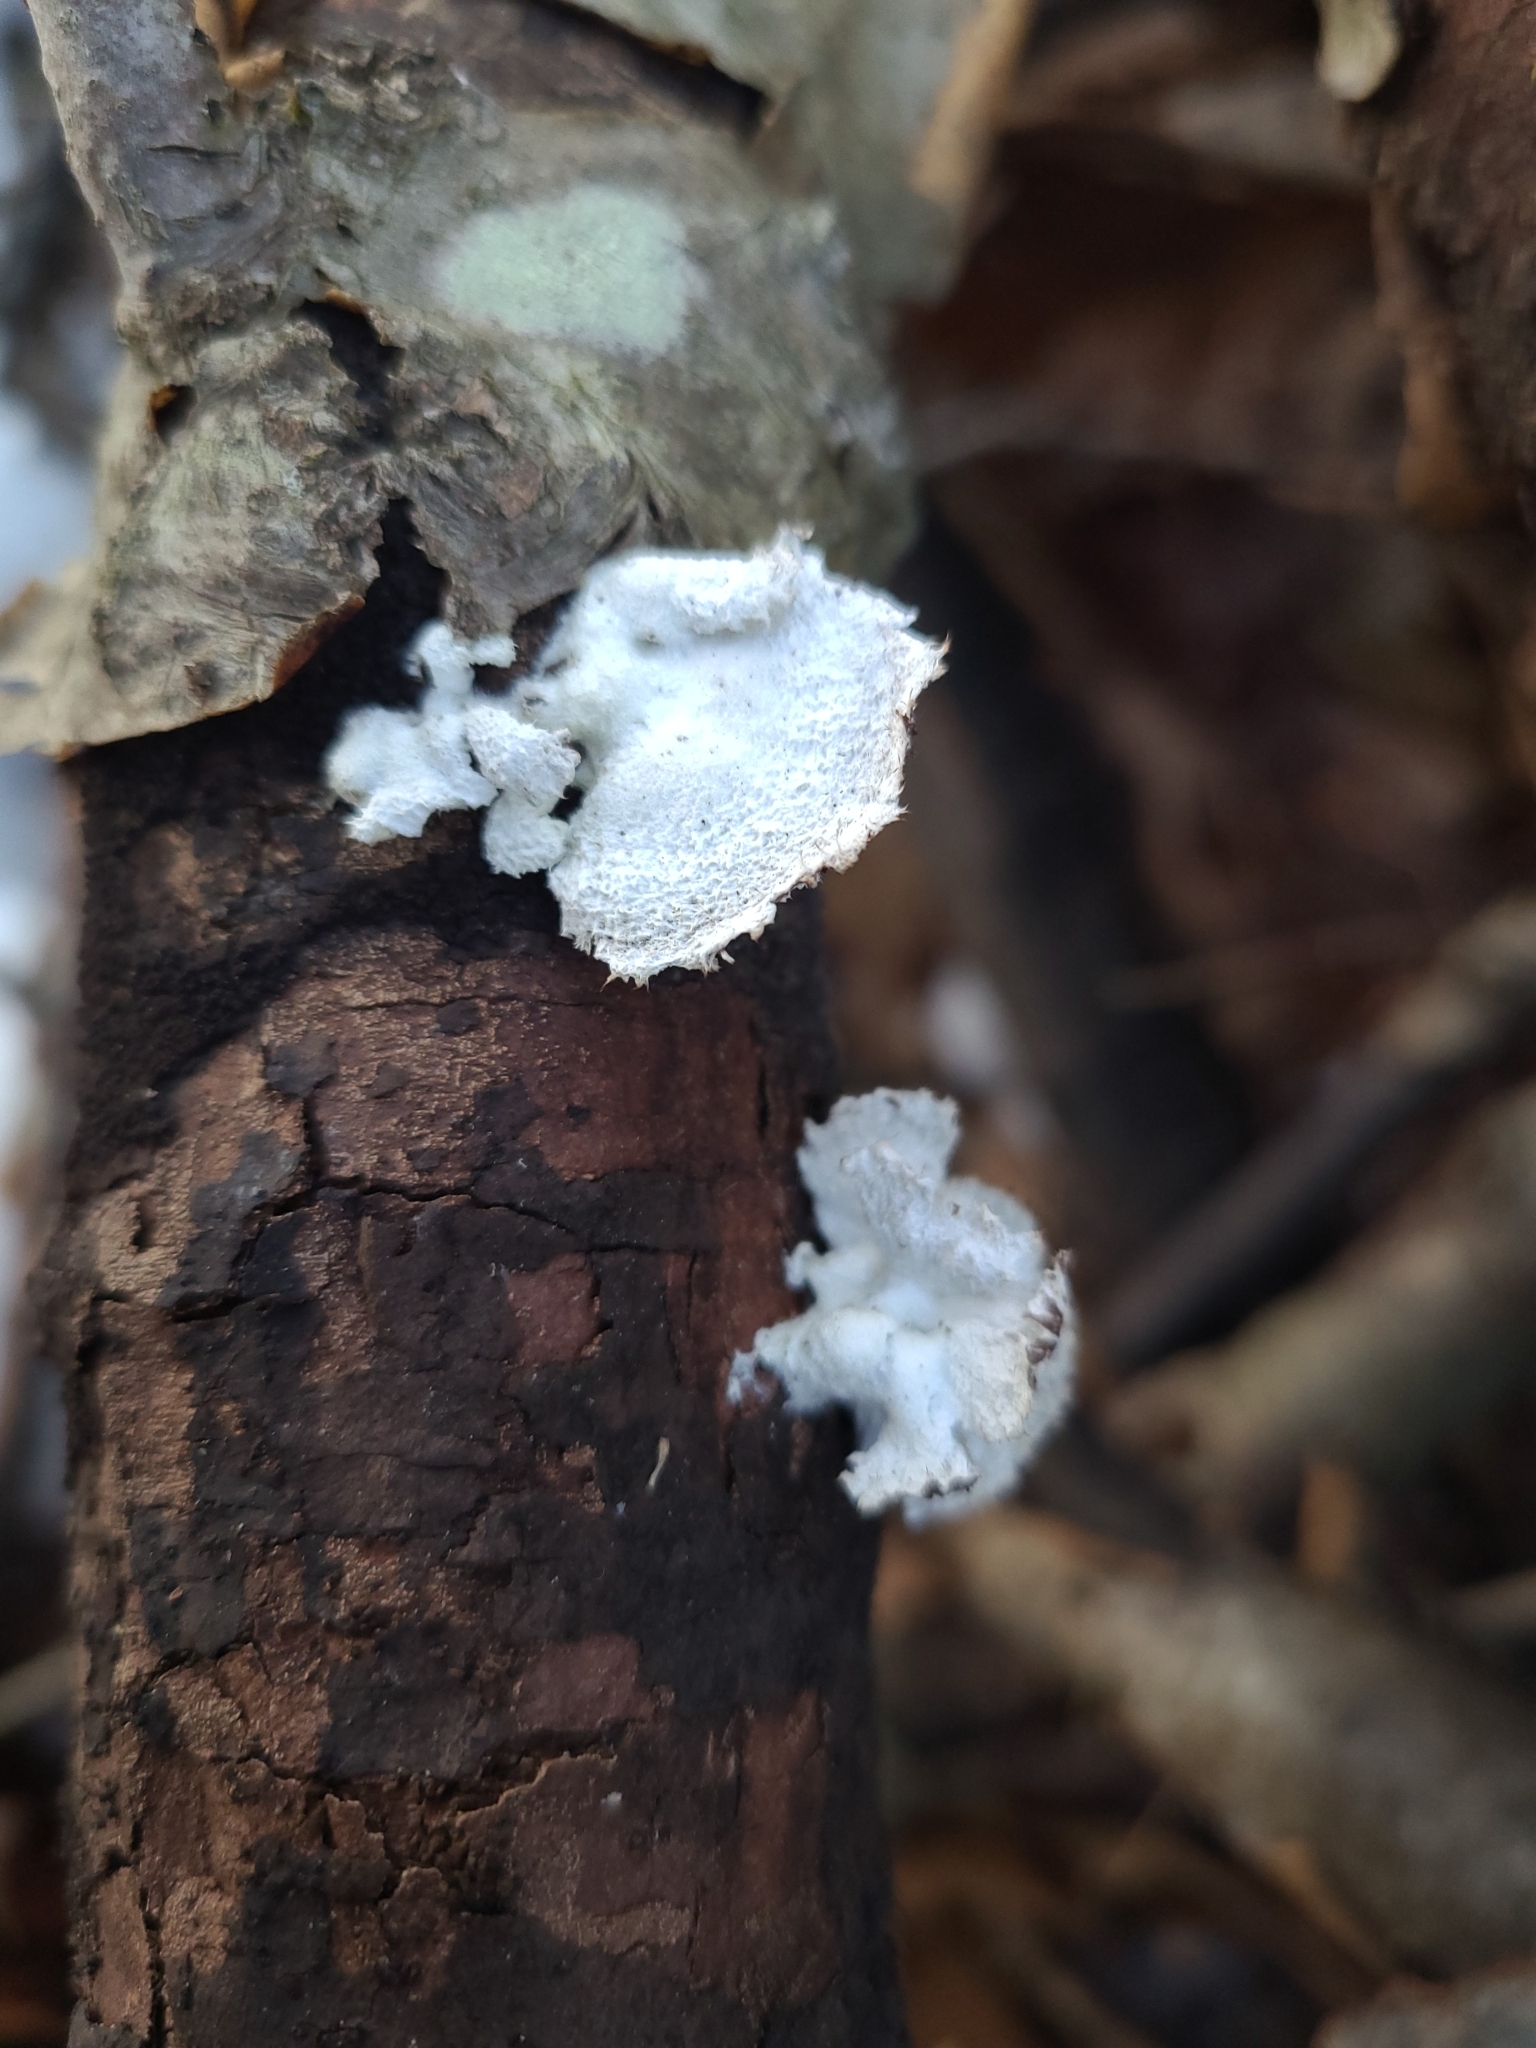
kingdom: Fungi
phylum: Basidiomycota
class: Agaricomycetes
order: Agaricales
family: Schizophyllaceae
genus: Schizophyllum
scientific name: Schizophyllum commune
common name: Common porecrust
